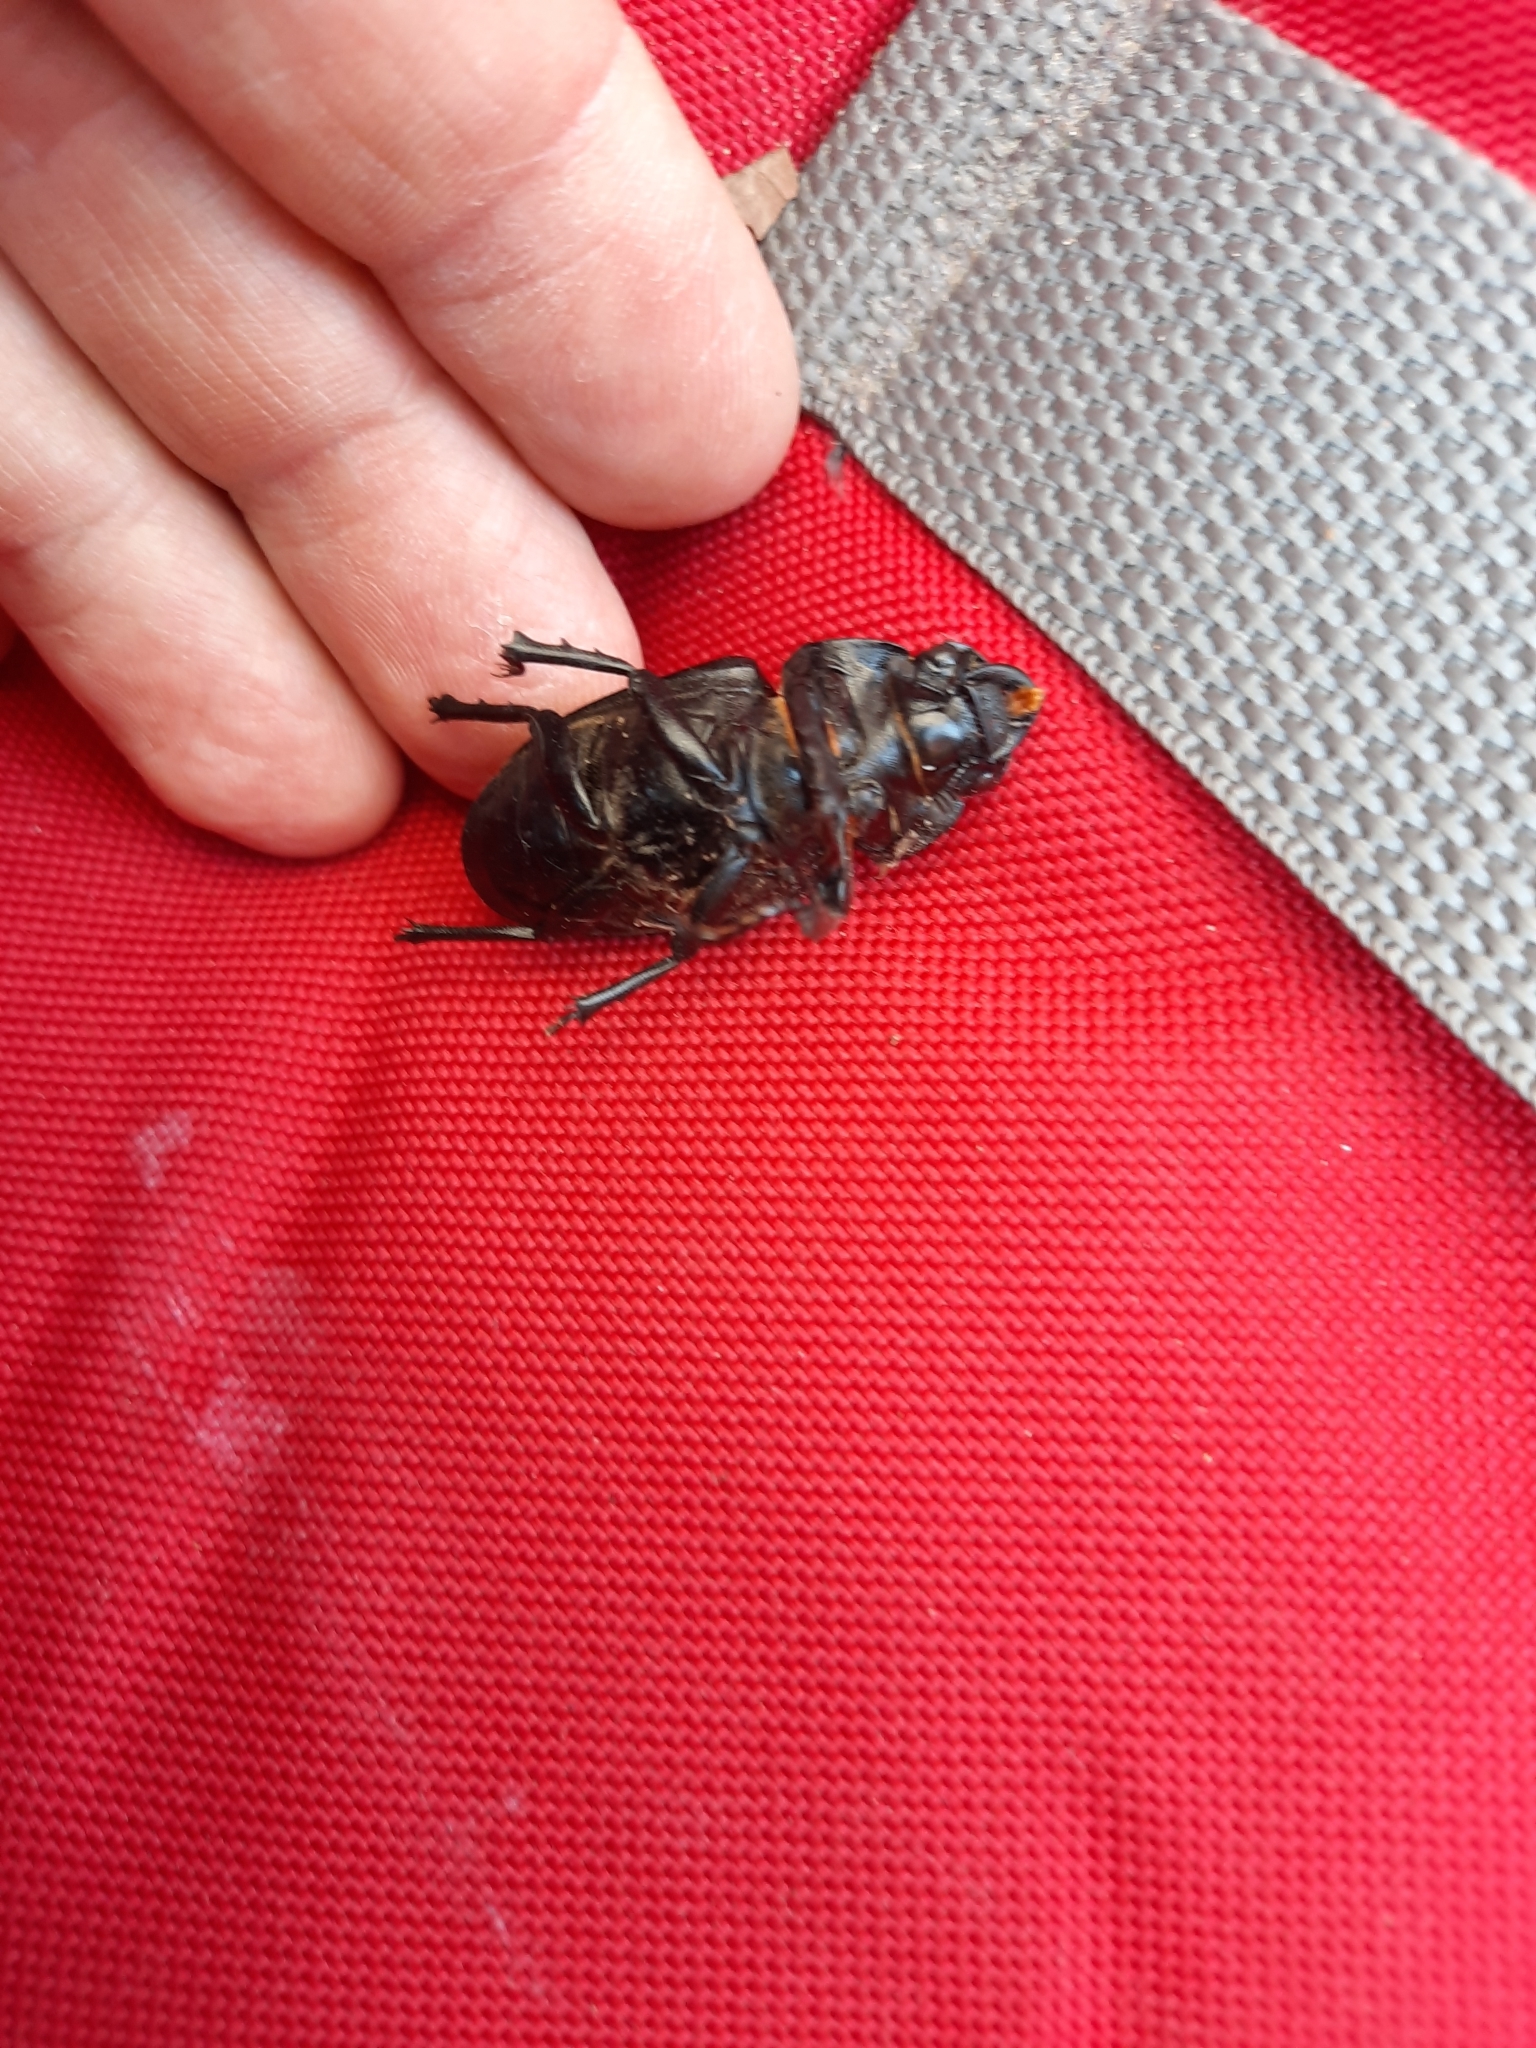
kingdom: Animalia
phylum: Arthropoda
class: Insecta
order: Coleoptera
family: Lucanidae
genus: Lucanus
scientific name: Lucanus cervus
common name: Stag beetle
